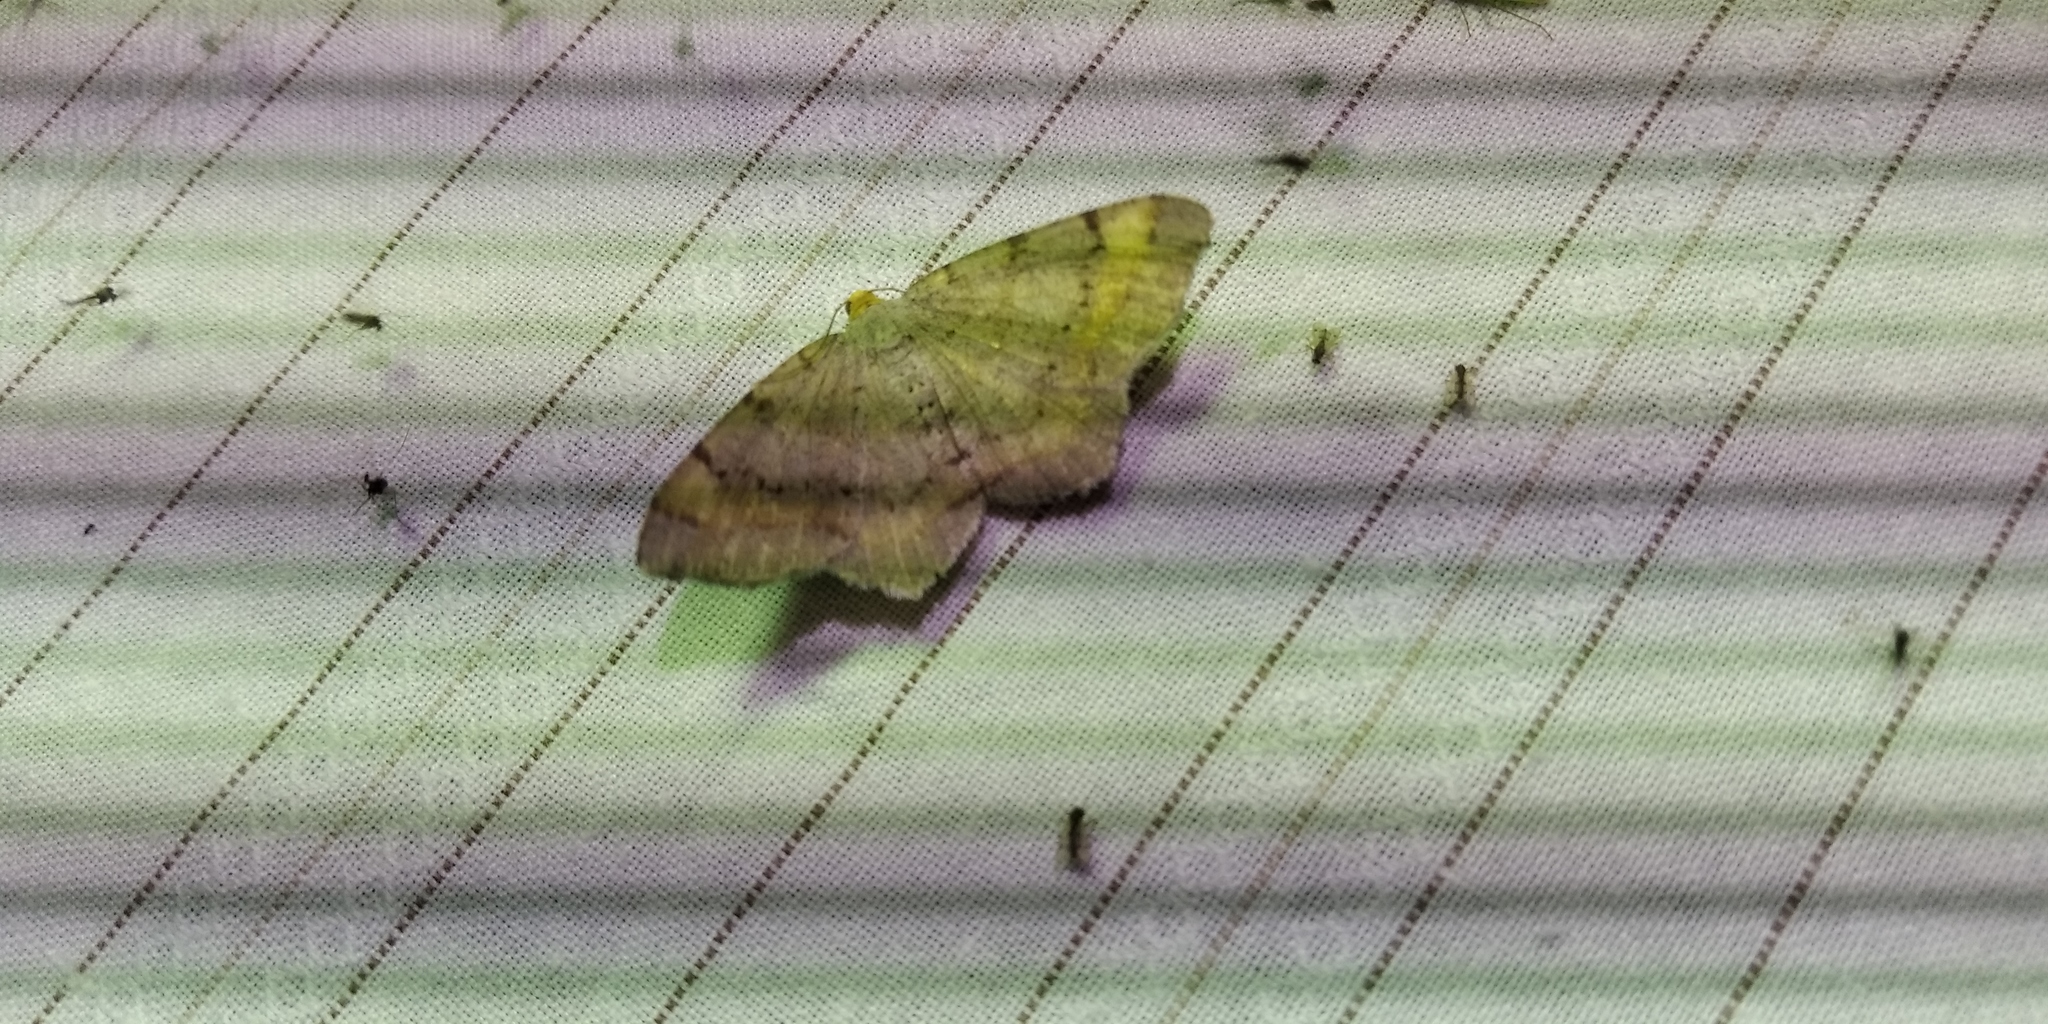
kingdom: Animalia
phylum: Arthropoda
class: Insecta
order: Lepidoptera
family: Geometridae
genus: Macaria
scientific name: Macaria liturata
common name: Tawny-barred angle
